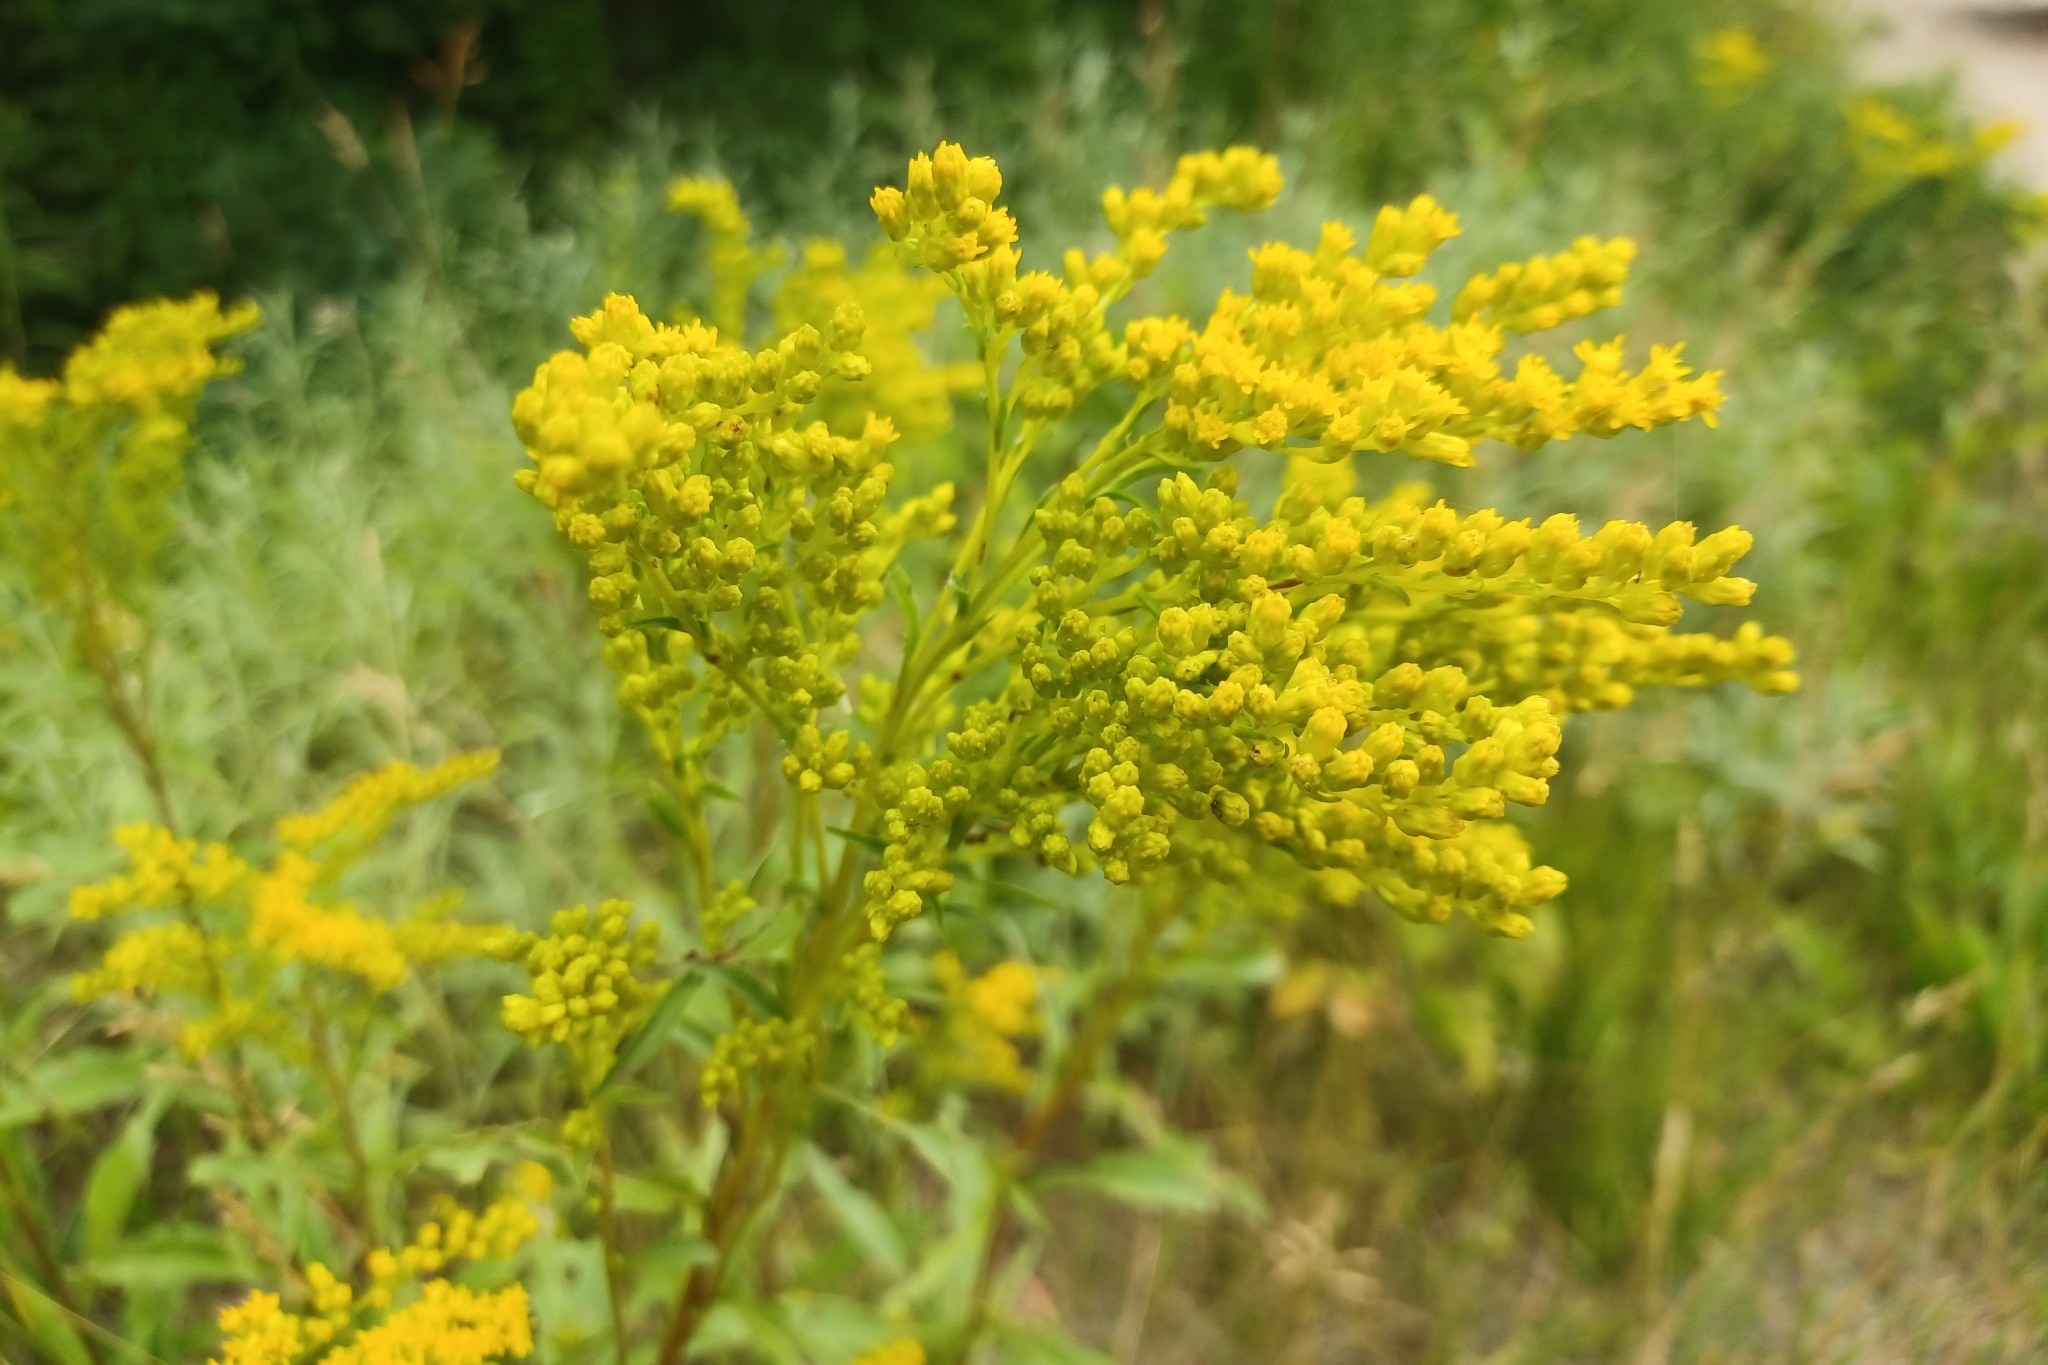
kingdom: Plantae
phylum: Tracheophyta
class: Magnoliopsida
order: Asterales
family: Asteraceae
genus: Solidago
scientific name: Solidago juncea
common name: Early goldenrod
